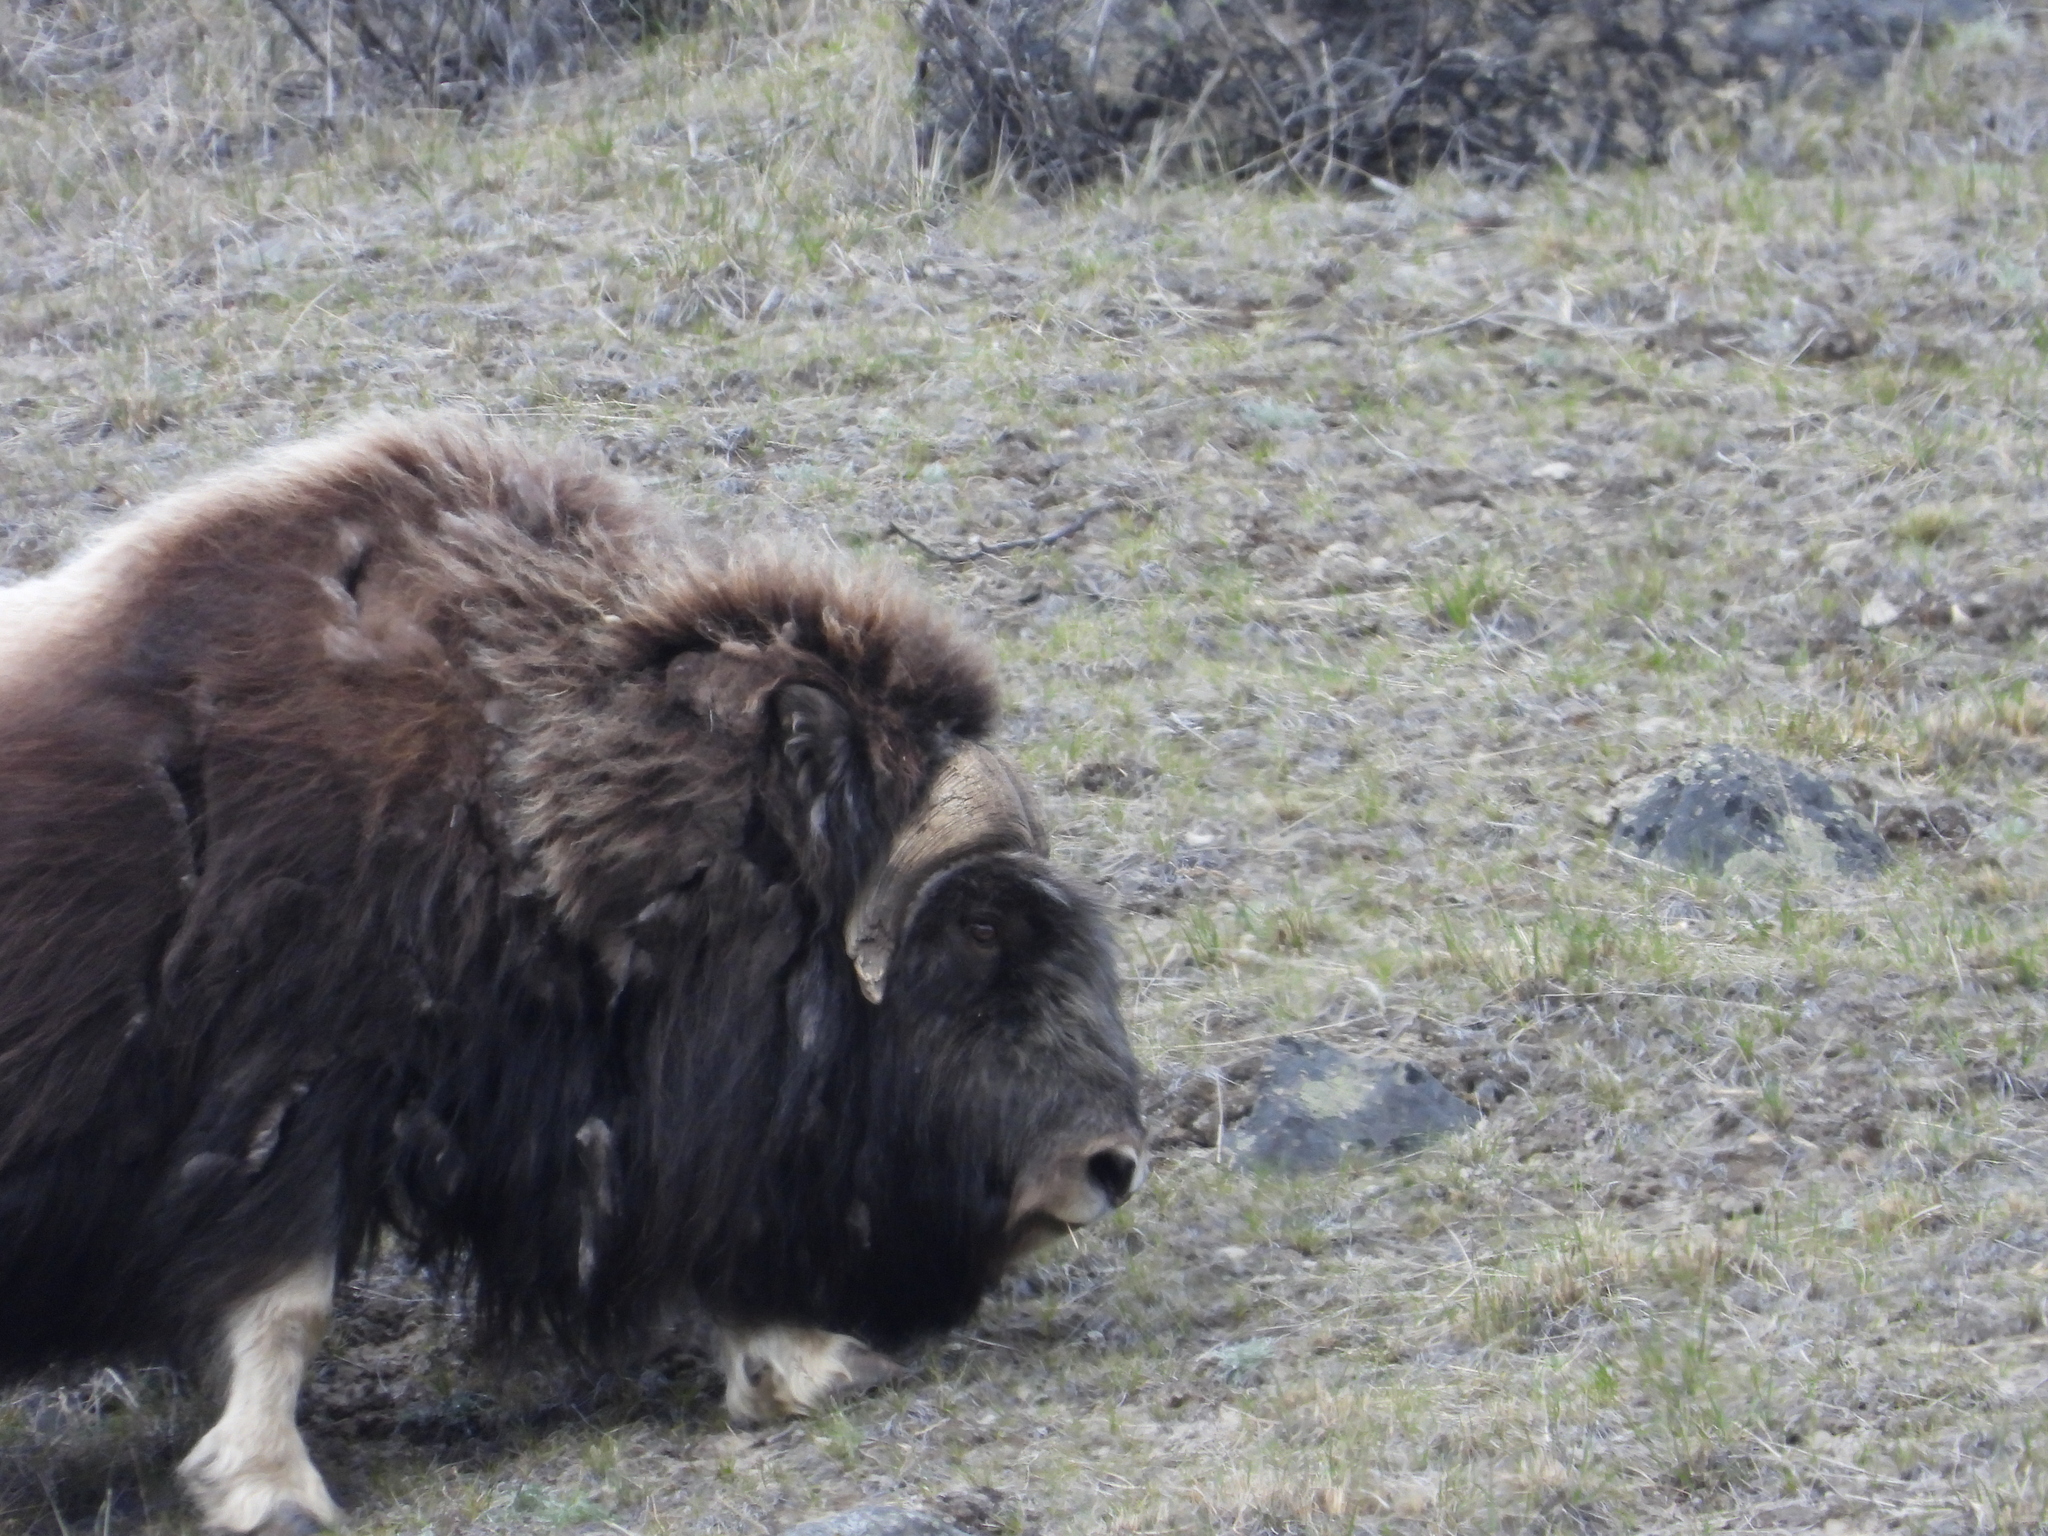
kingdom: Animalia
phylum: Chordata
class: Mammalia
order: Artiodactyla
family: Bovidae
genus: Ovibos
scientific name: Ovibos moschatus
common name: Muskox
